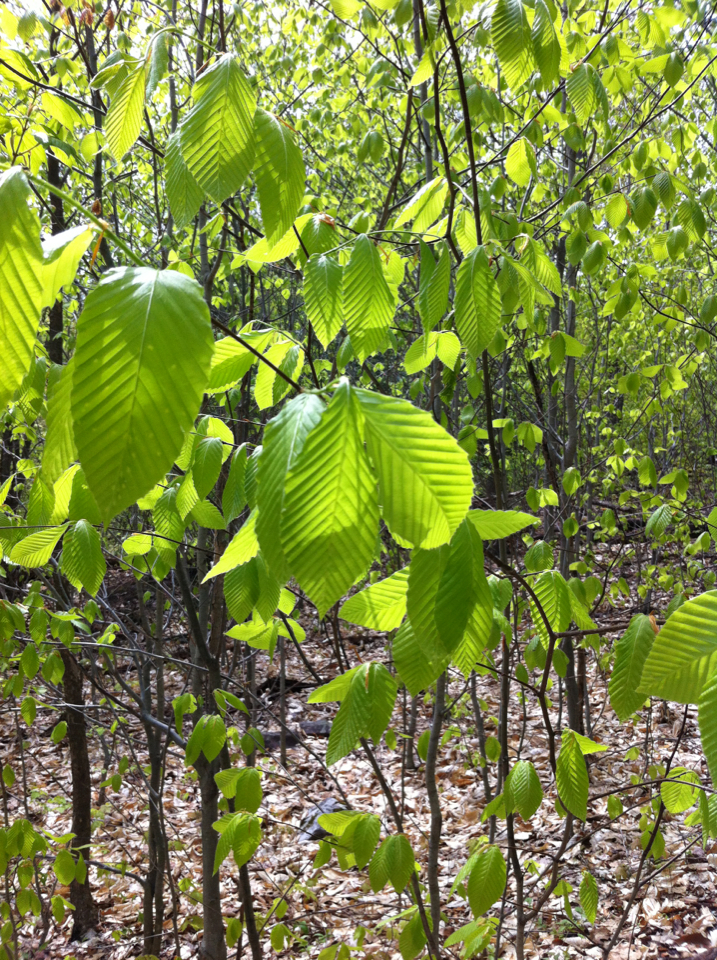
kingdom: Plantae
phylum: Tracheophyta
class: Magnoliopsida
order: Fagales
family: Fagaceae
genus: Fagus
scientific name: Fagus grandifolia
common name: American beech
